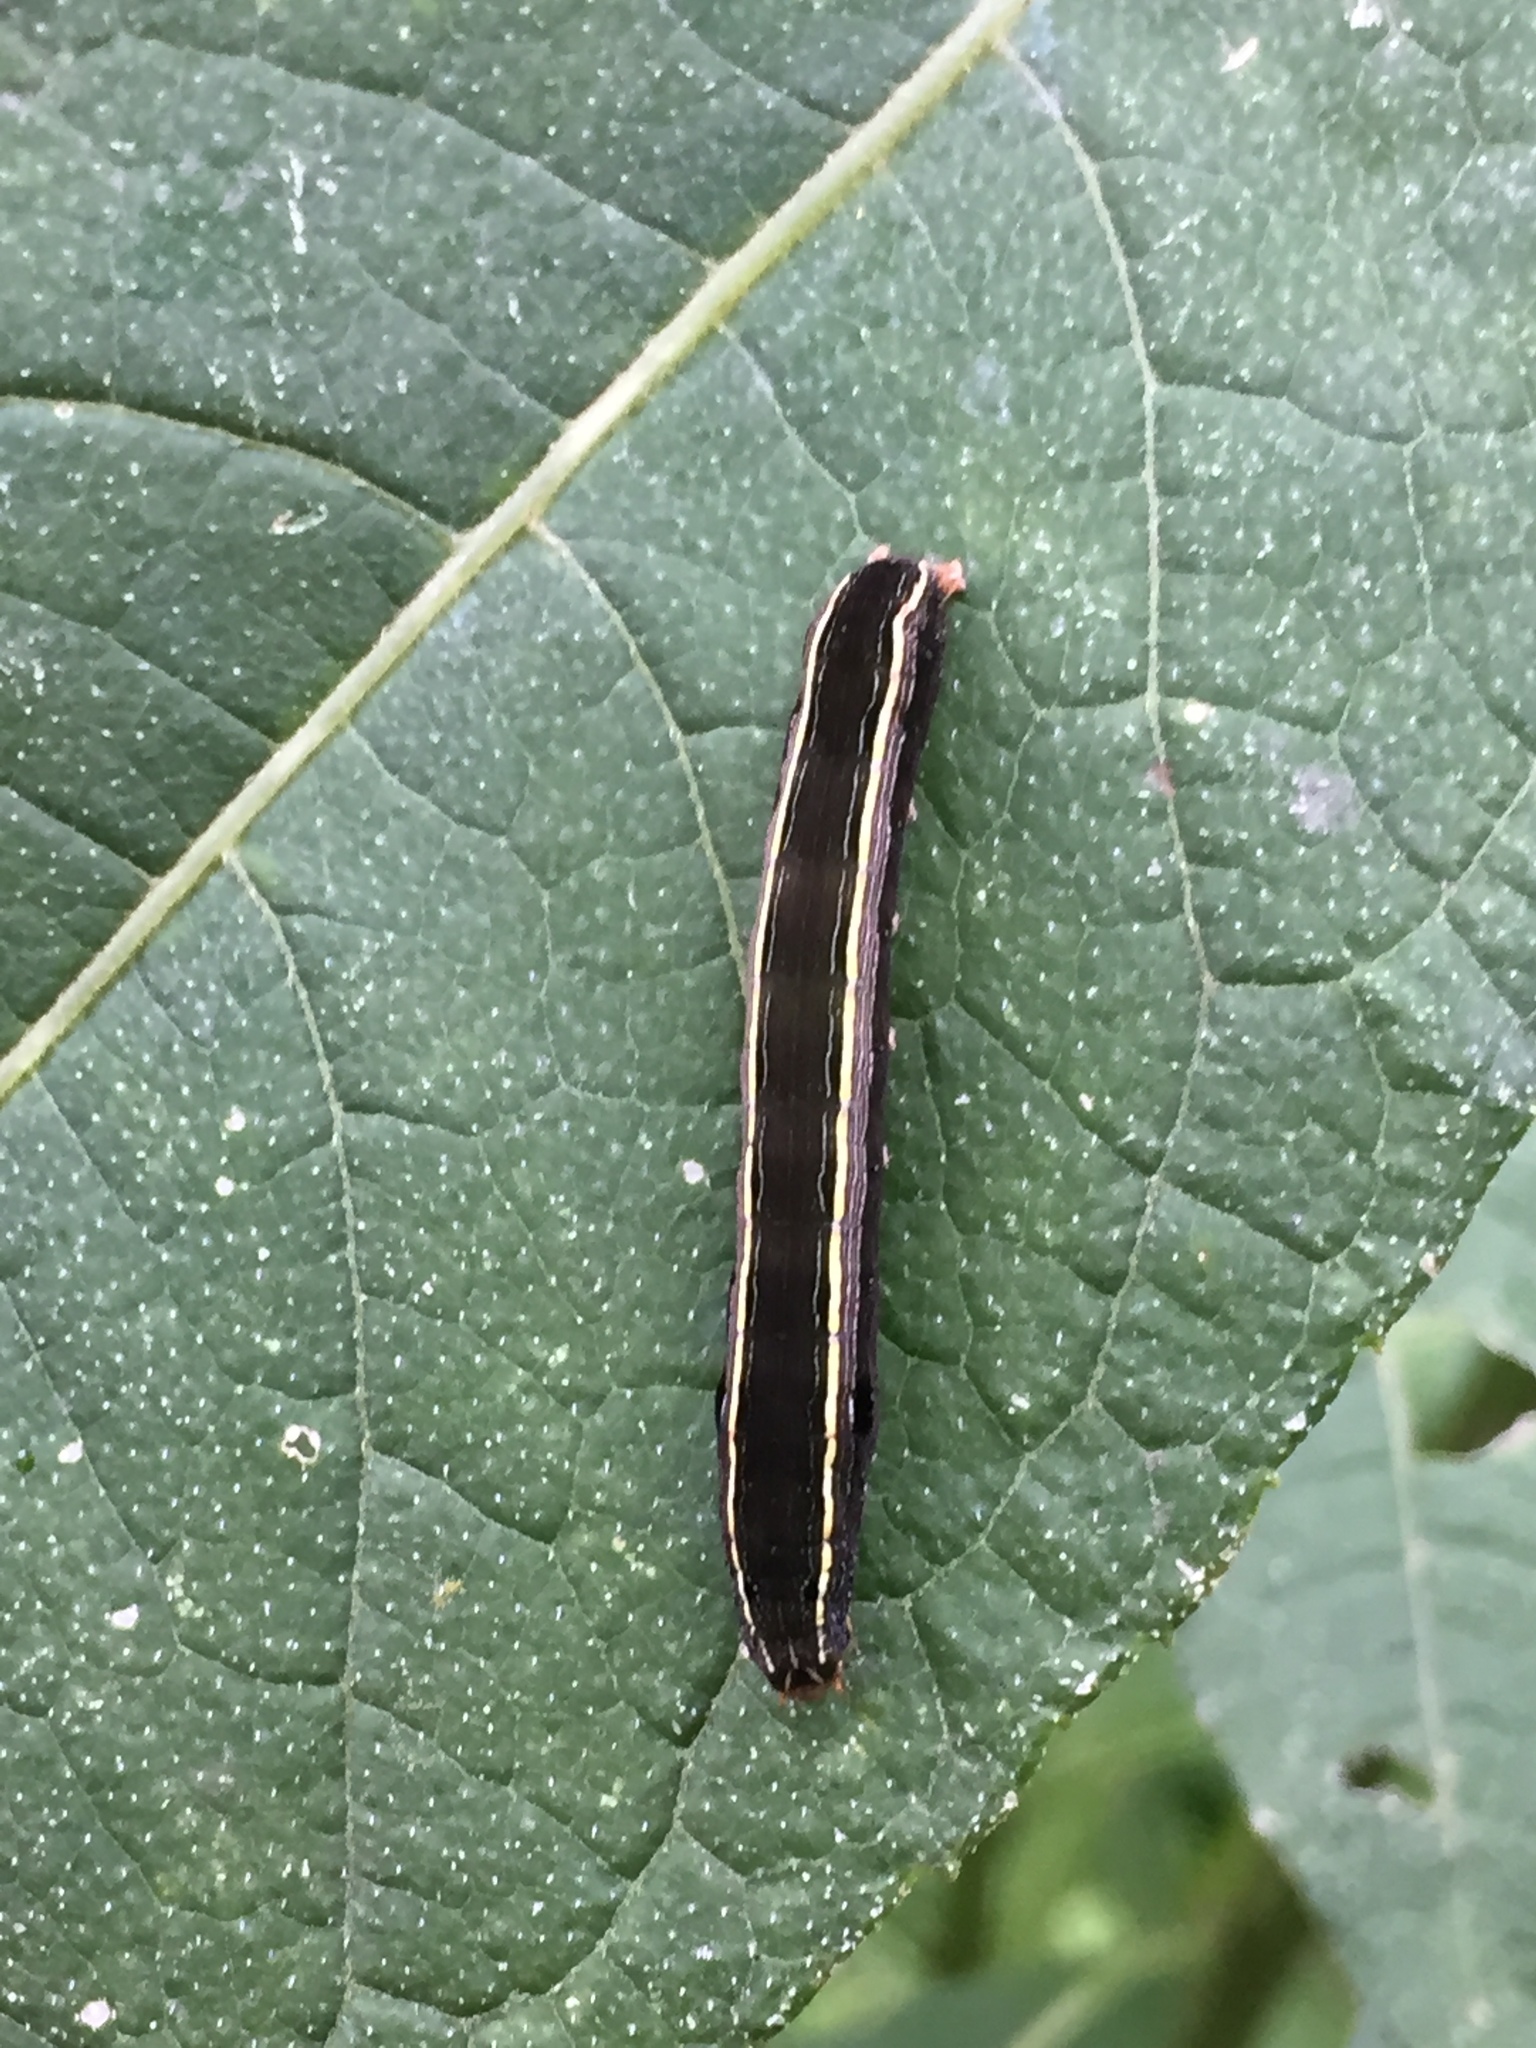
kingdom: Animalia
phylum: Arthropoda
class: Insecta
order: Lepidoptera
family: Noctuidae
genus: Spodoptera
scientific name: Spodoptera ornithogalli
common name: Yellow-striped armyworm
